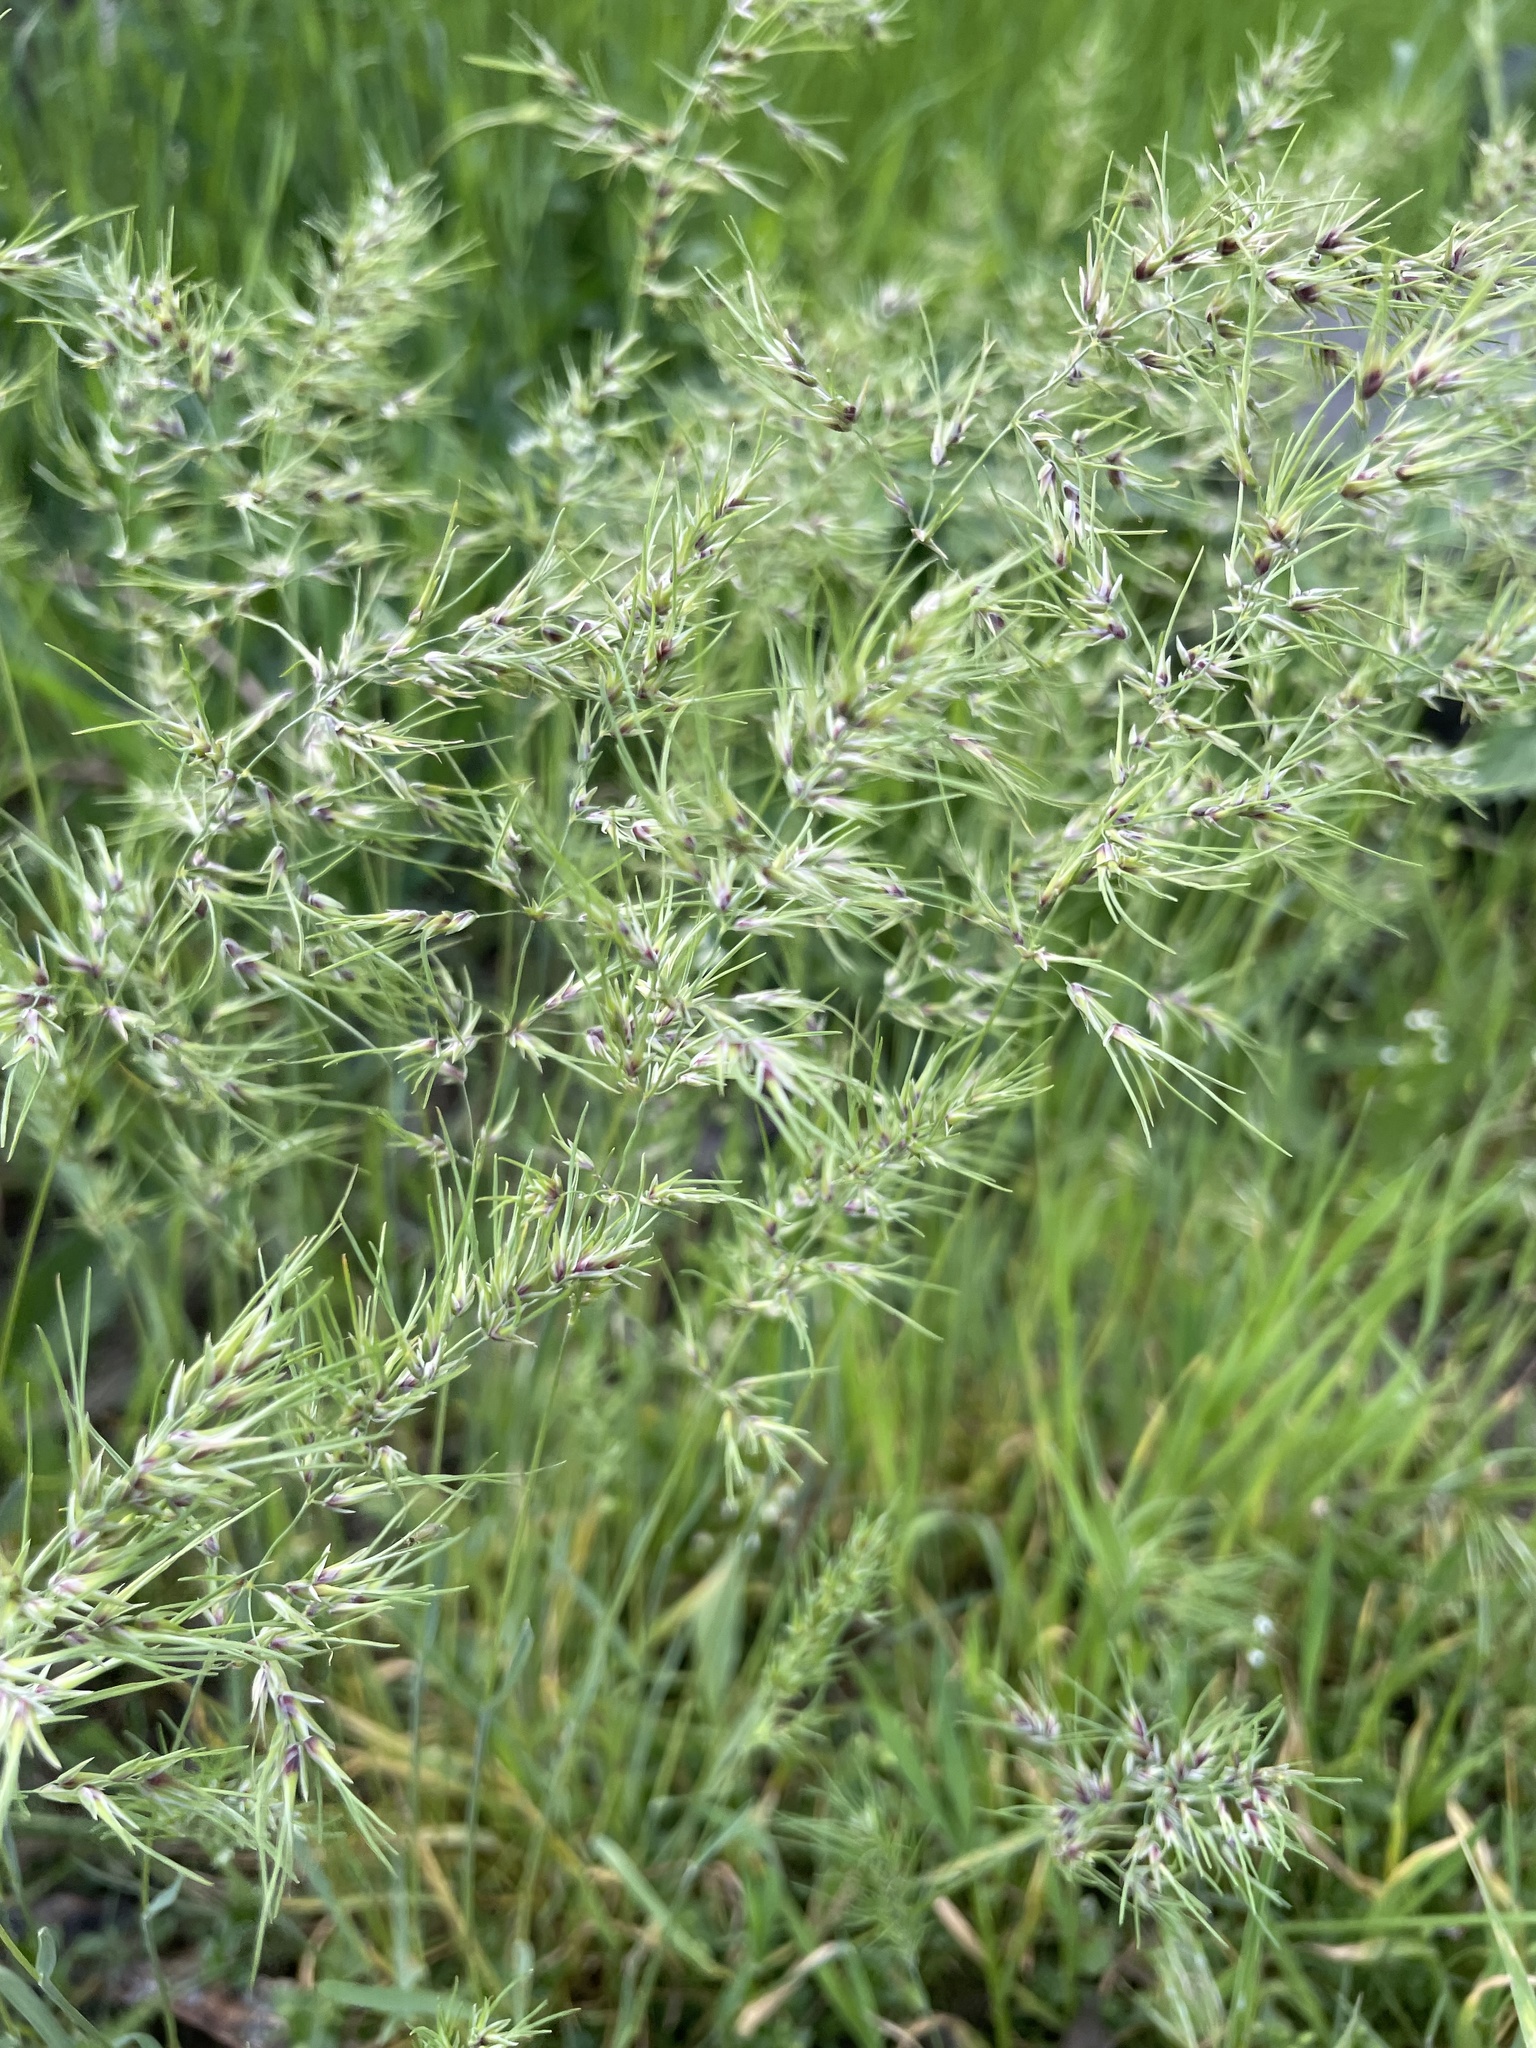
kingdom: Plantae
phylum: Tracheophyta
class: Liliopsida
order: Poales
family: Poaceae
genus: Poa
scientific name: Poa bulbosa
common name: Bulbous bluegrass
